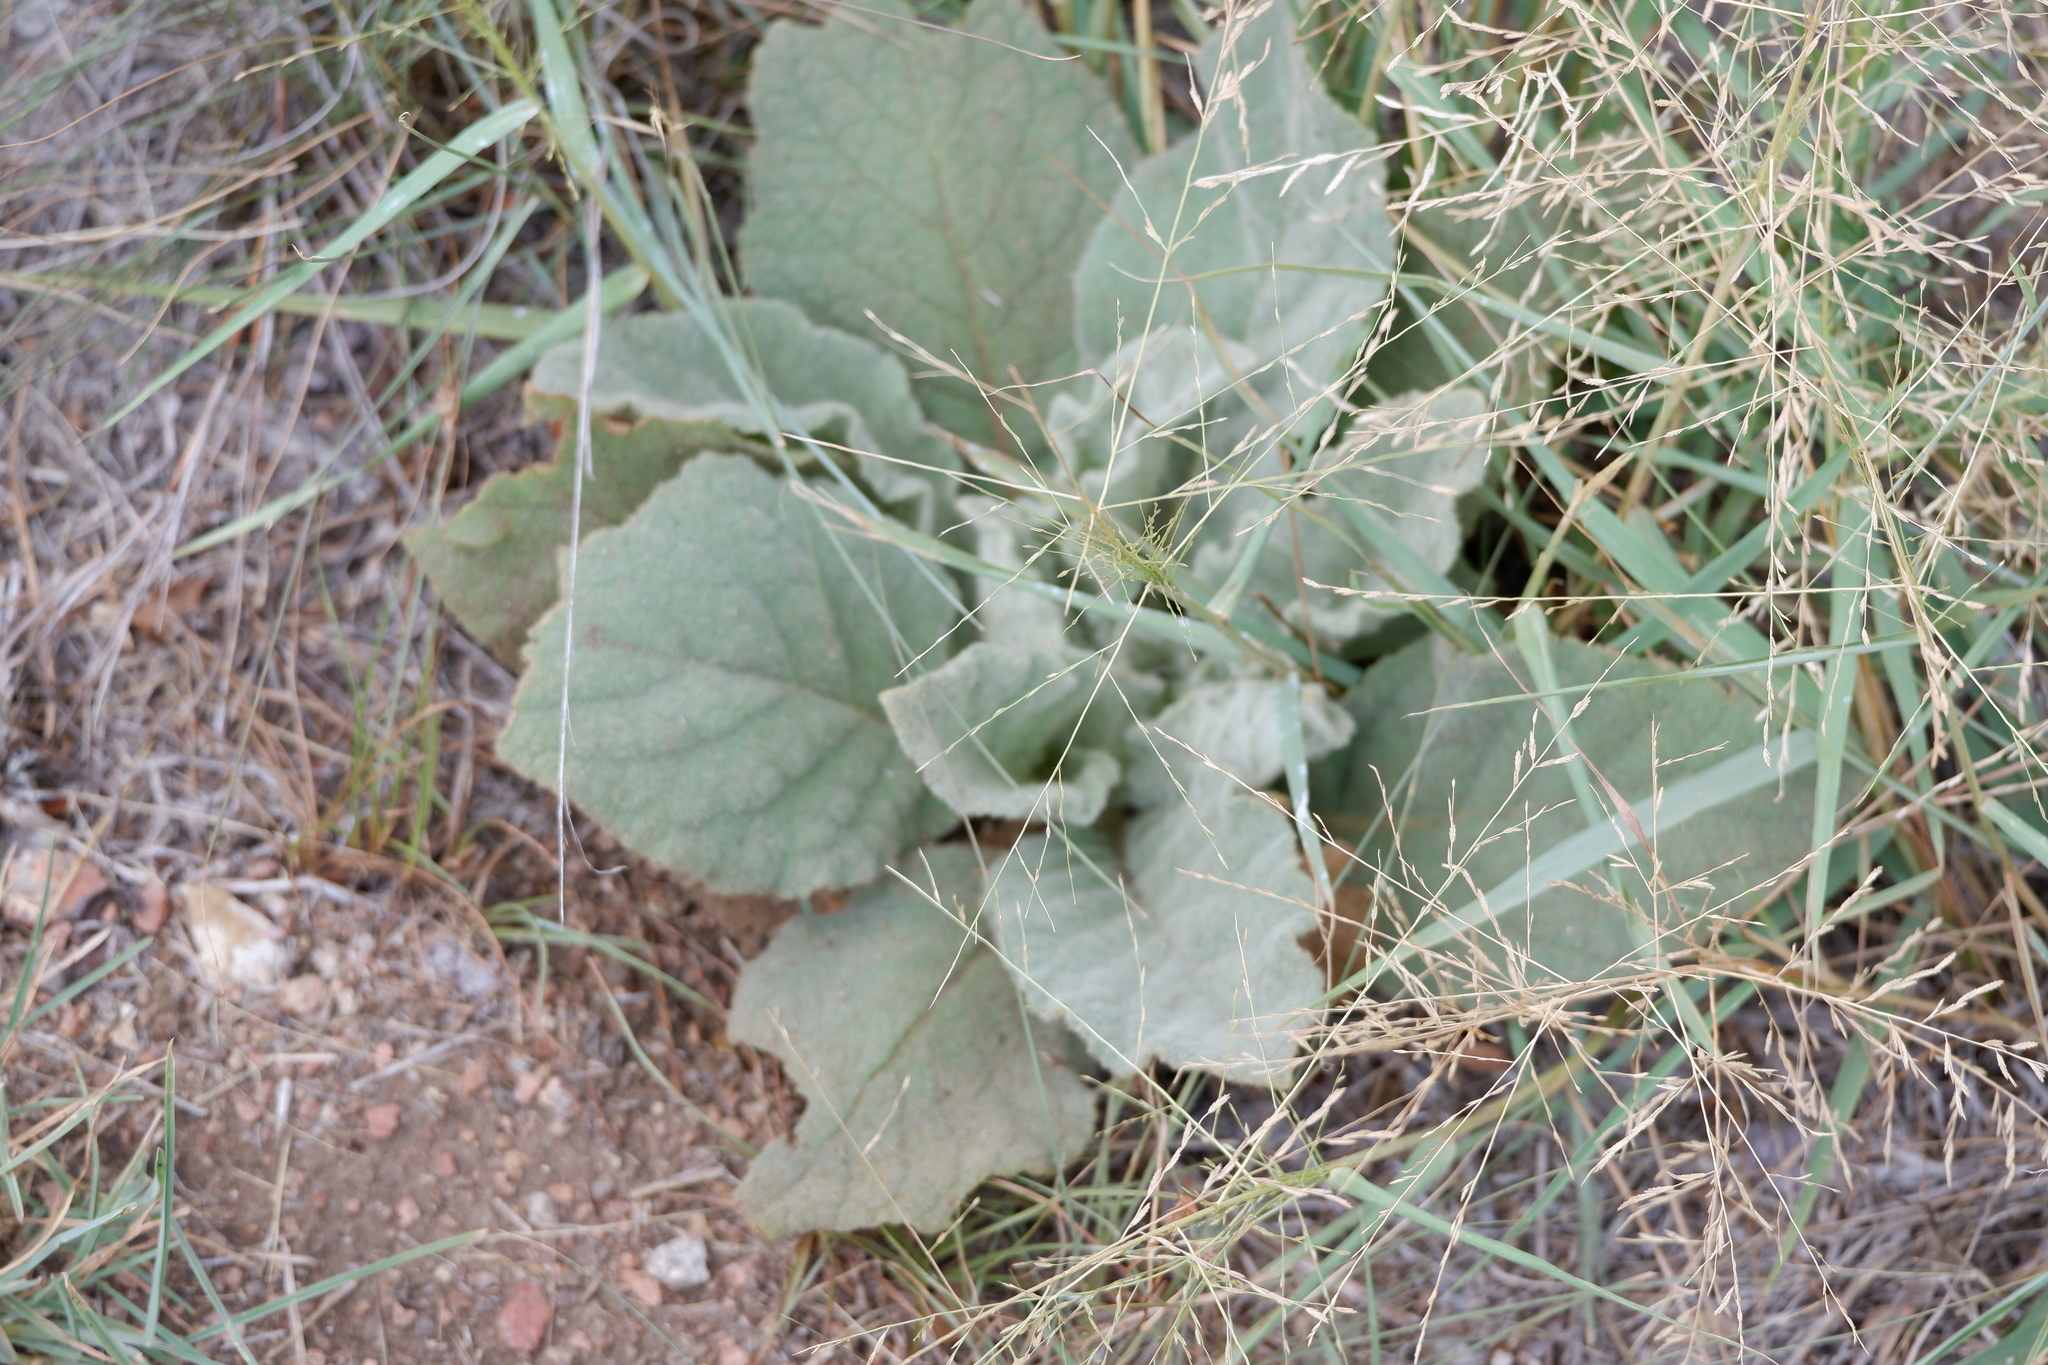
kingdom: Plantae
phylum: Tracheophyta
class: Magnoliopsida
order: Lamiales
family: Scrophulariaceae
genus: Verbascum
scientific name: Verbascum thapsus
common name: Common mullein
